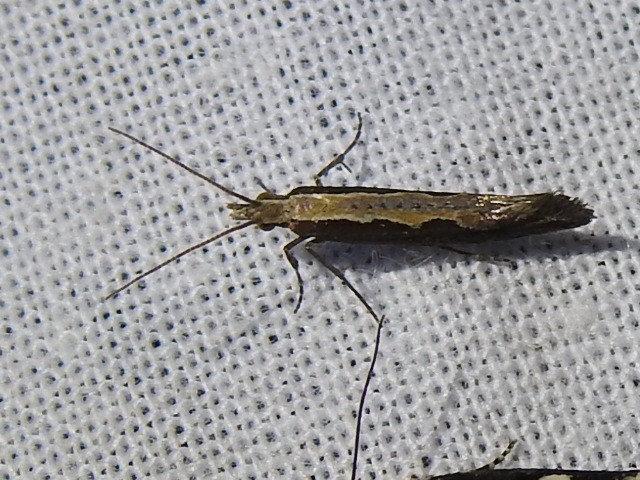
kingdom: Animalia
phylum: Arthropoda
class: Insecta
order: Lepidoptera
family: Plutellidae
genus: Plutella
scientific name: Plutella xylostella
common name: Diamond-back moth
